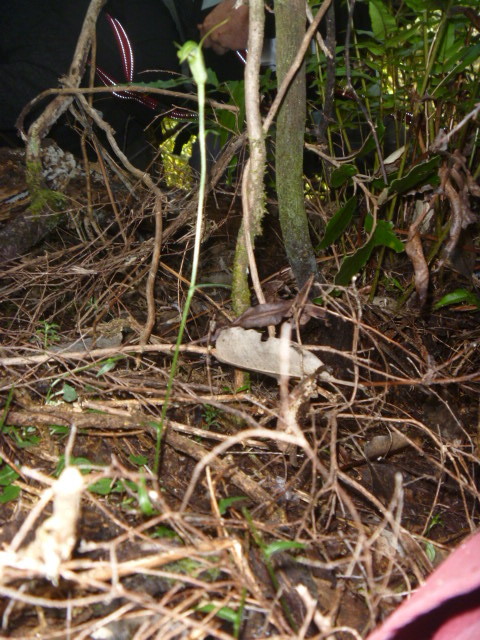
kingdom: Plantae
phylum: Tracheophyta
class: Liliopsida
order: Asparagales
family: Orchidaceae
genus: Pterostylis
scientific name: Pterostylis trullifolia
